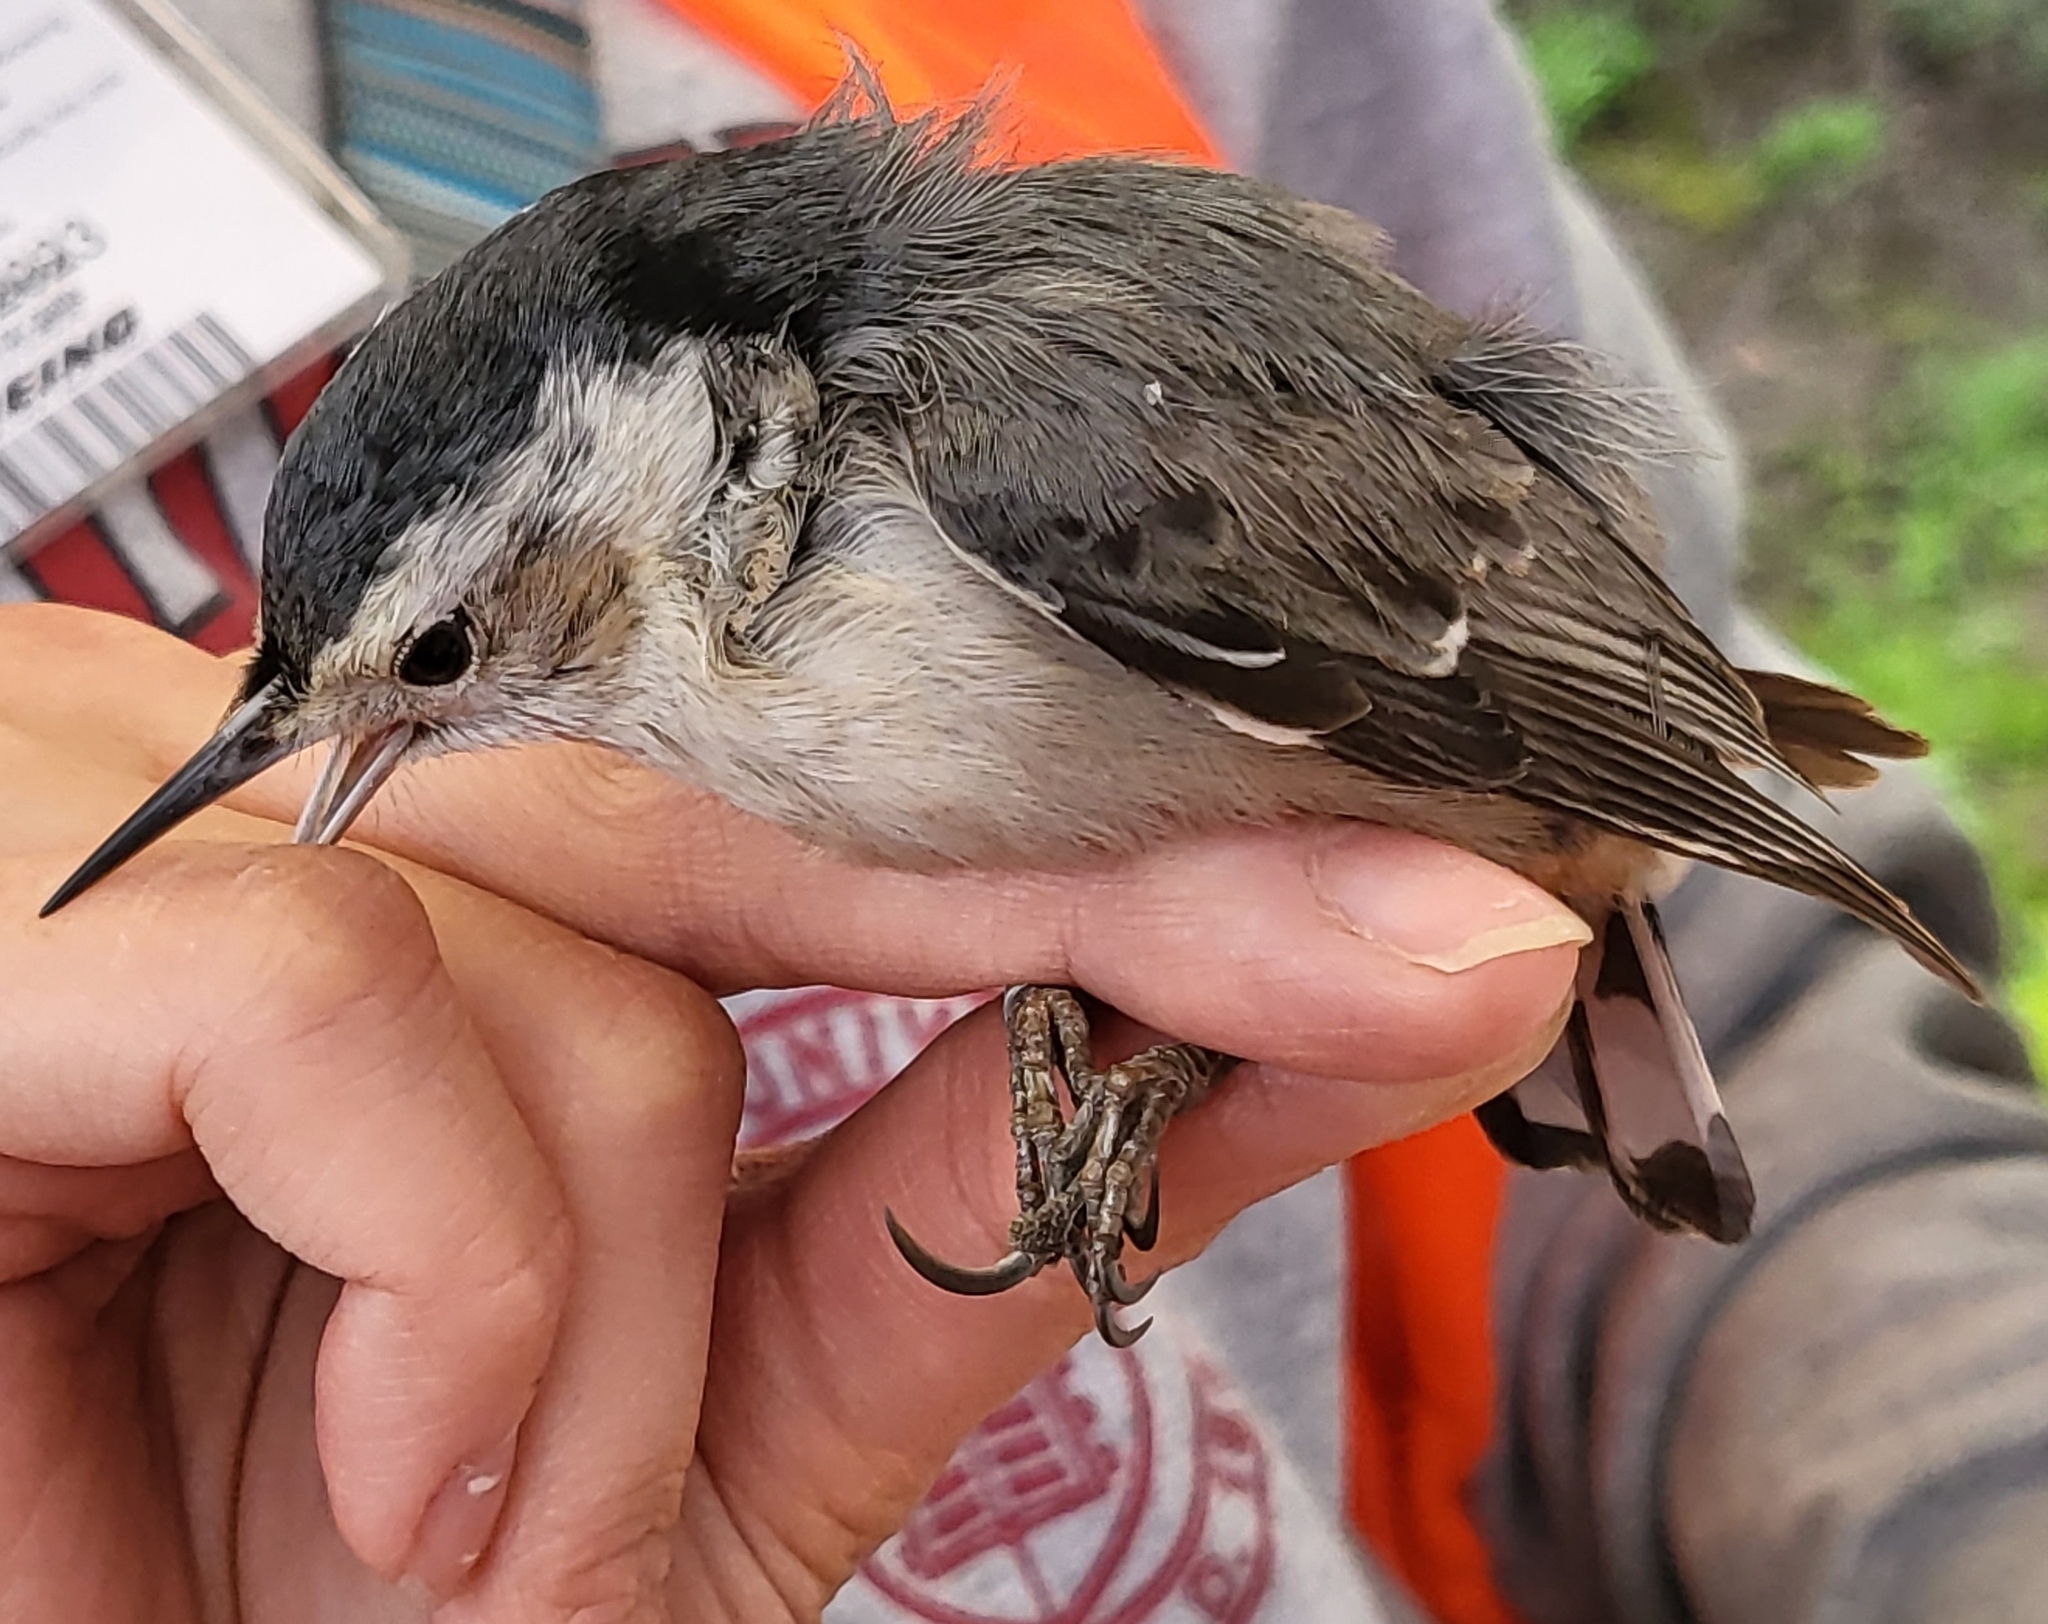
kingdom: Animalia
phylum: Chordata
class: Aves
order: Passeriformes
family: Sittidae
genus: Sitta
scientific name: Sitta carolinensis
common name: White-breasted nuthatch
